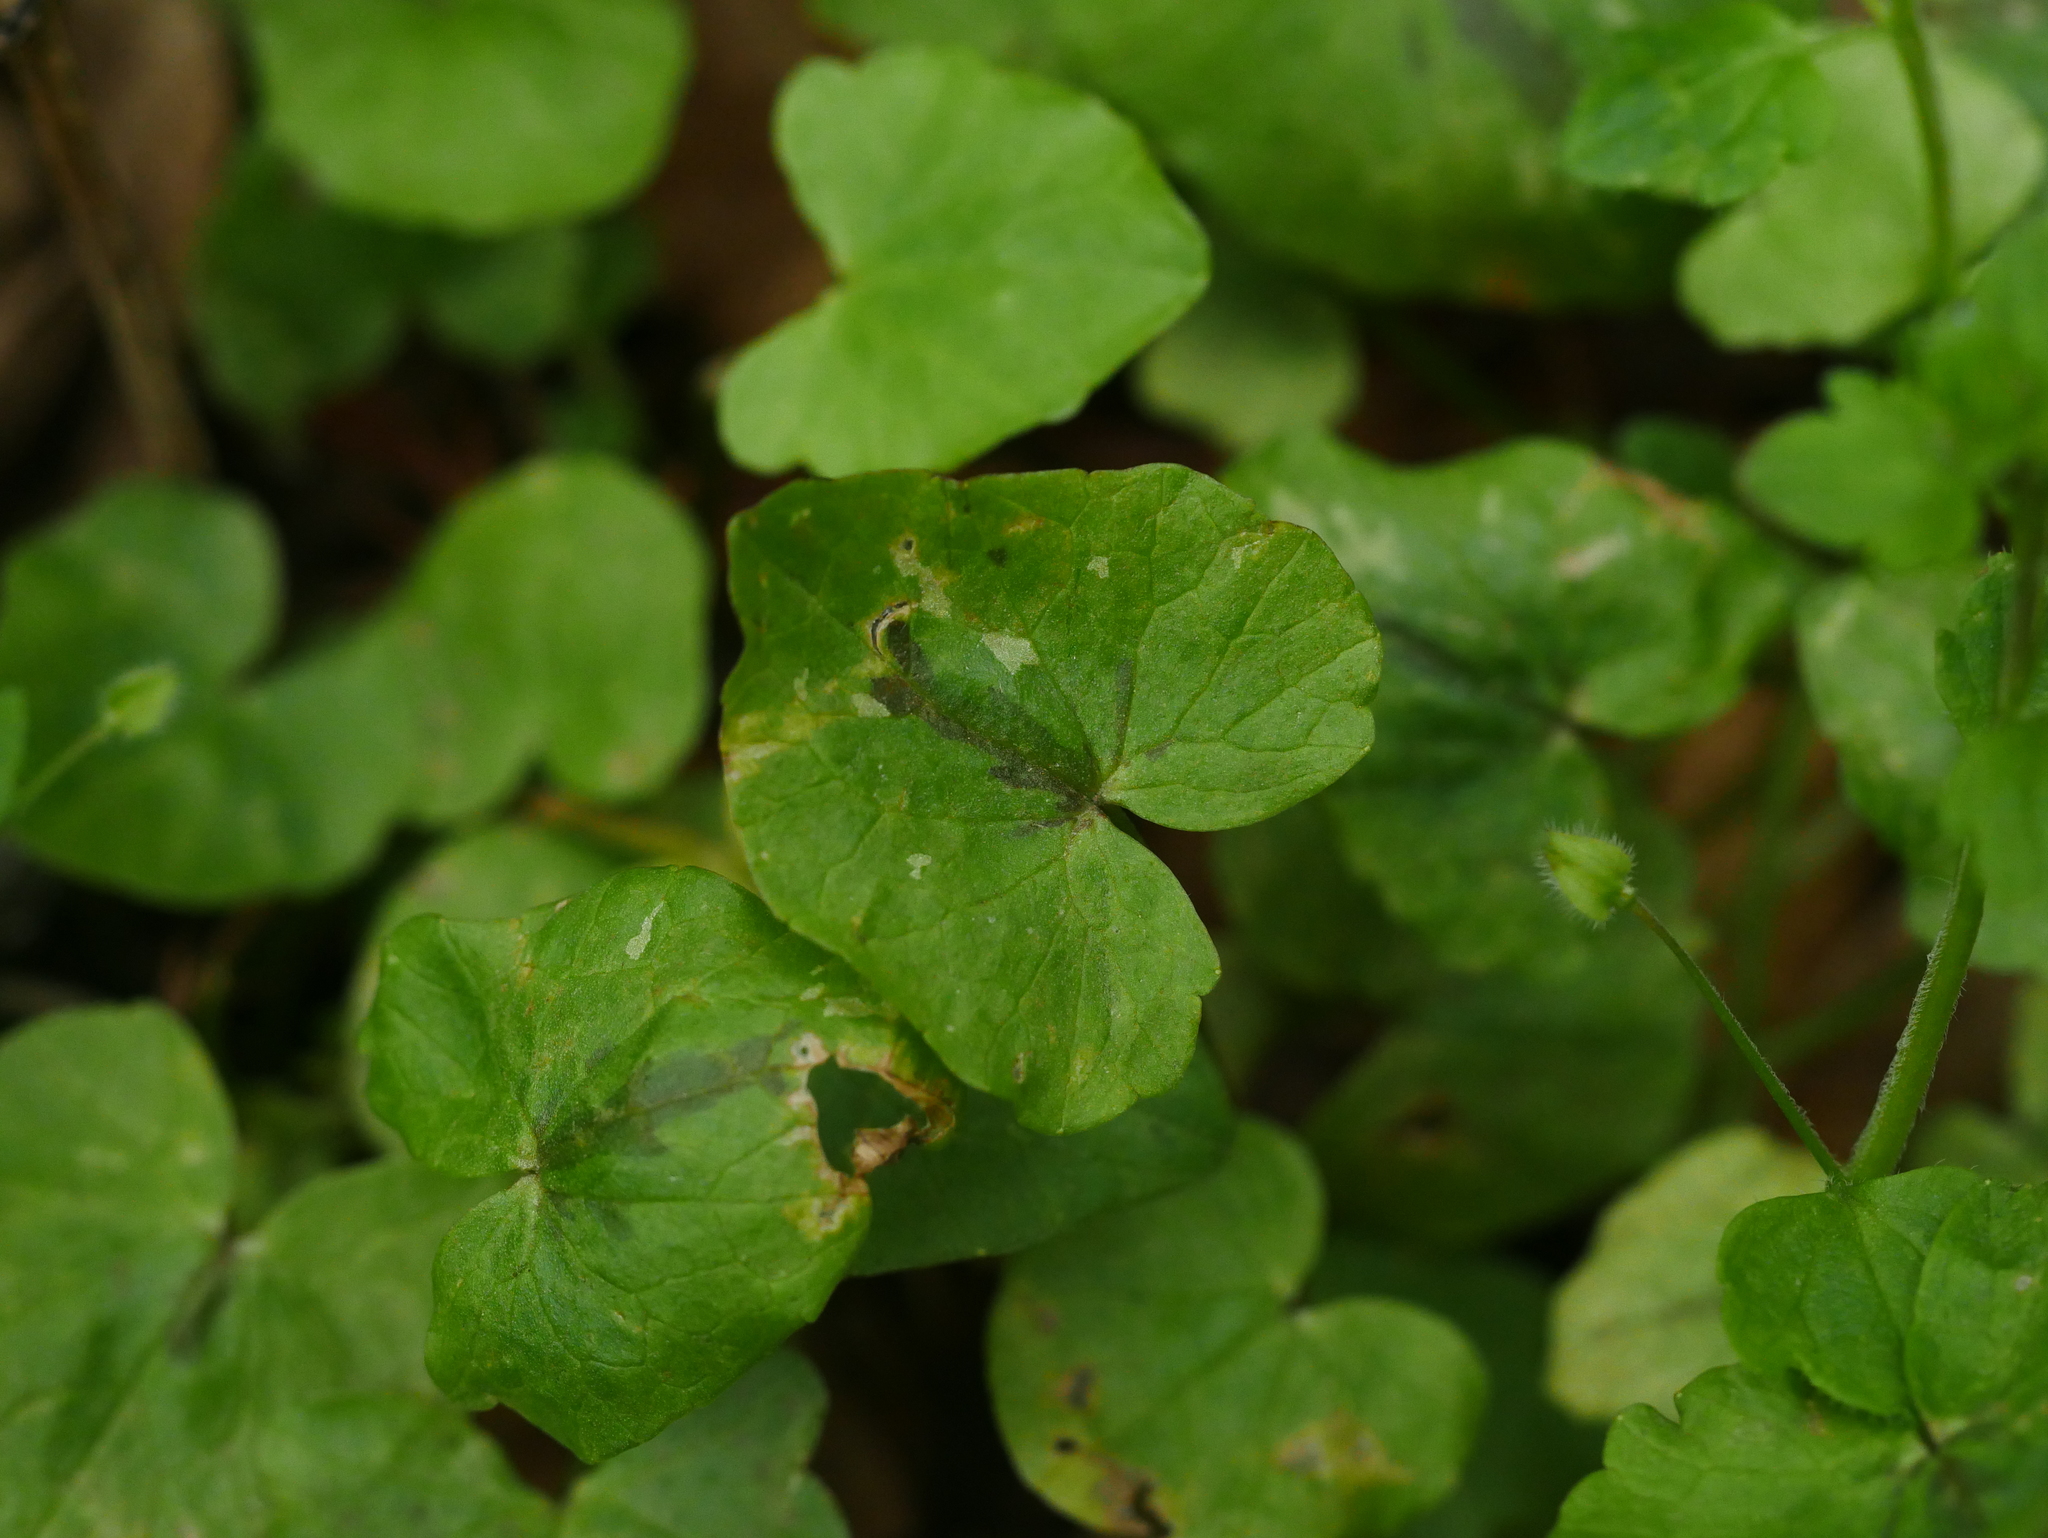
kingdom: Plantae
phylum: Tracheophyta
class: Magnoliopsida
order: Ranunculales
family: Ranunculaceae
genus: Ficaria
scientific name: Ficaria verna
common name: Lesser celandine
